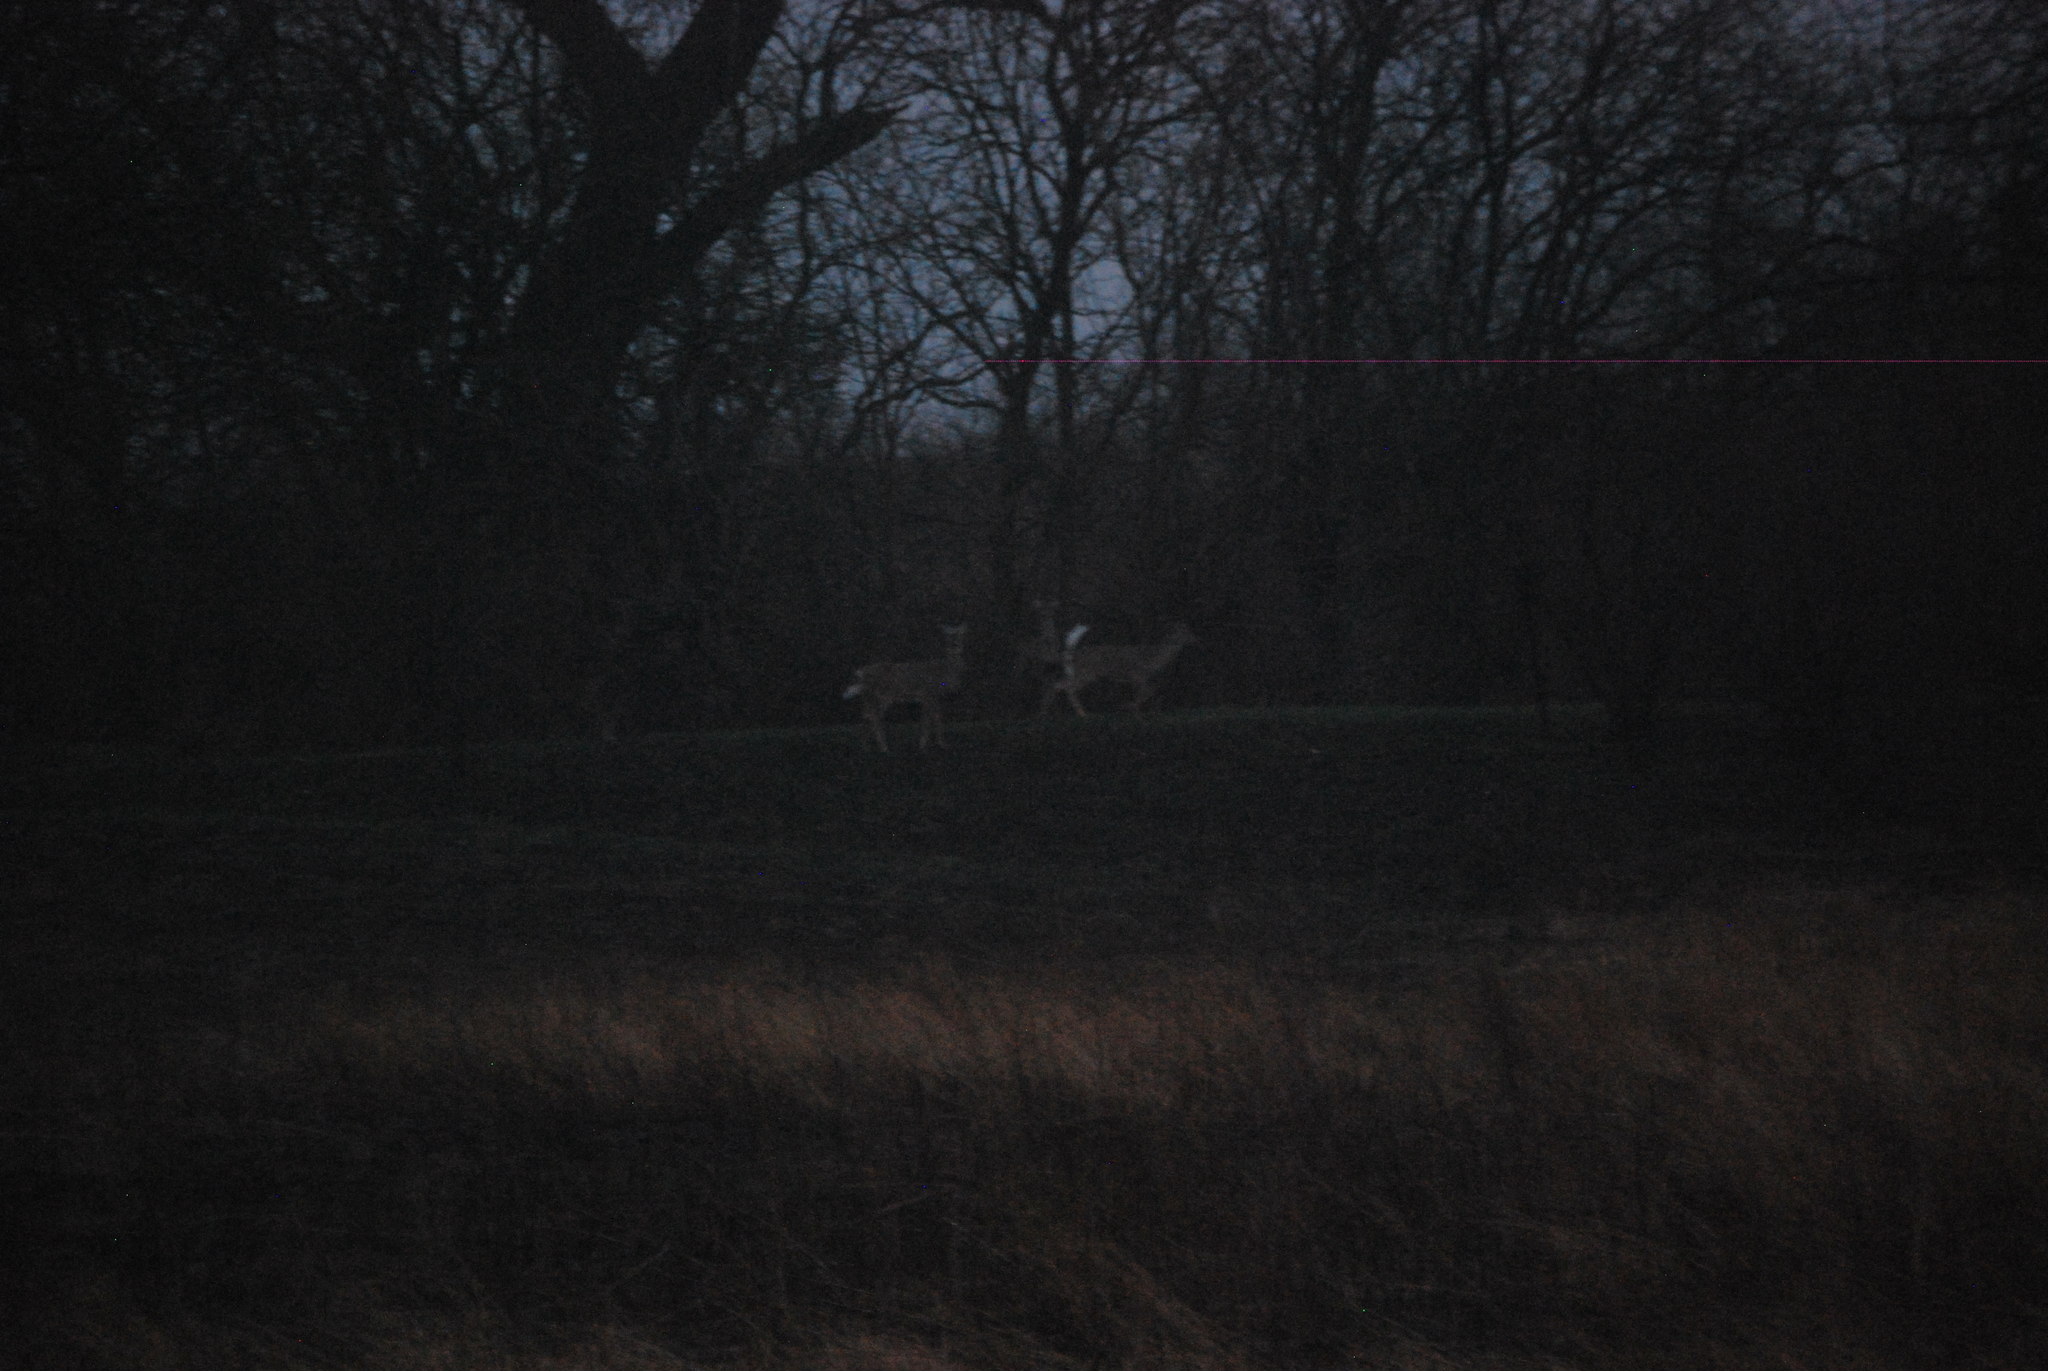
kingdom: Animalia
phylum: Chordata
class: Mammalia
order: Artiodactyla
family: Cervidae
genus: Odocoileus
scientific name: Odocoileus virginianus
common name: White-tailed deer
